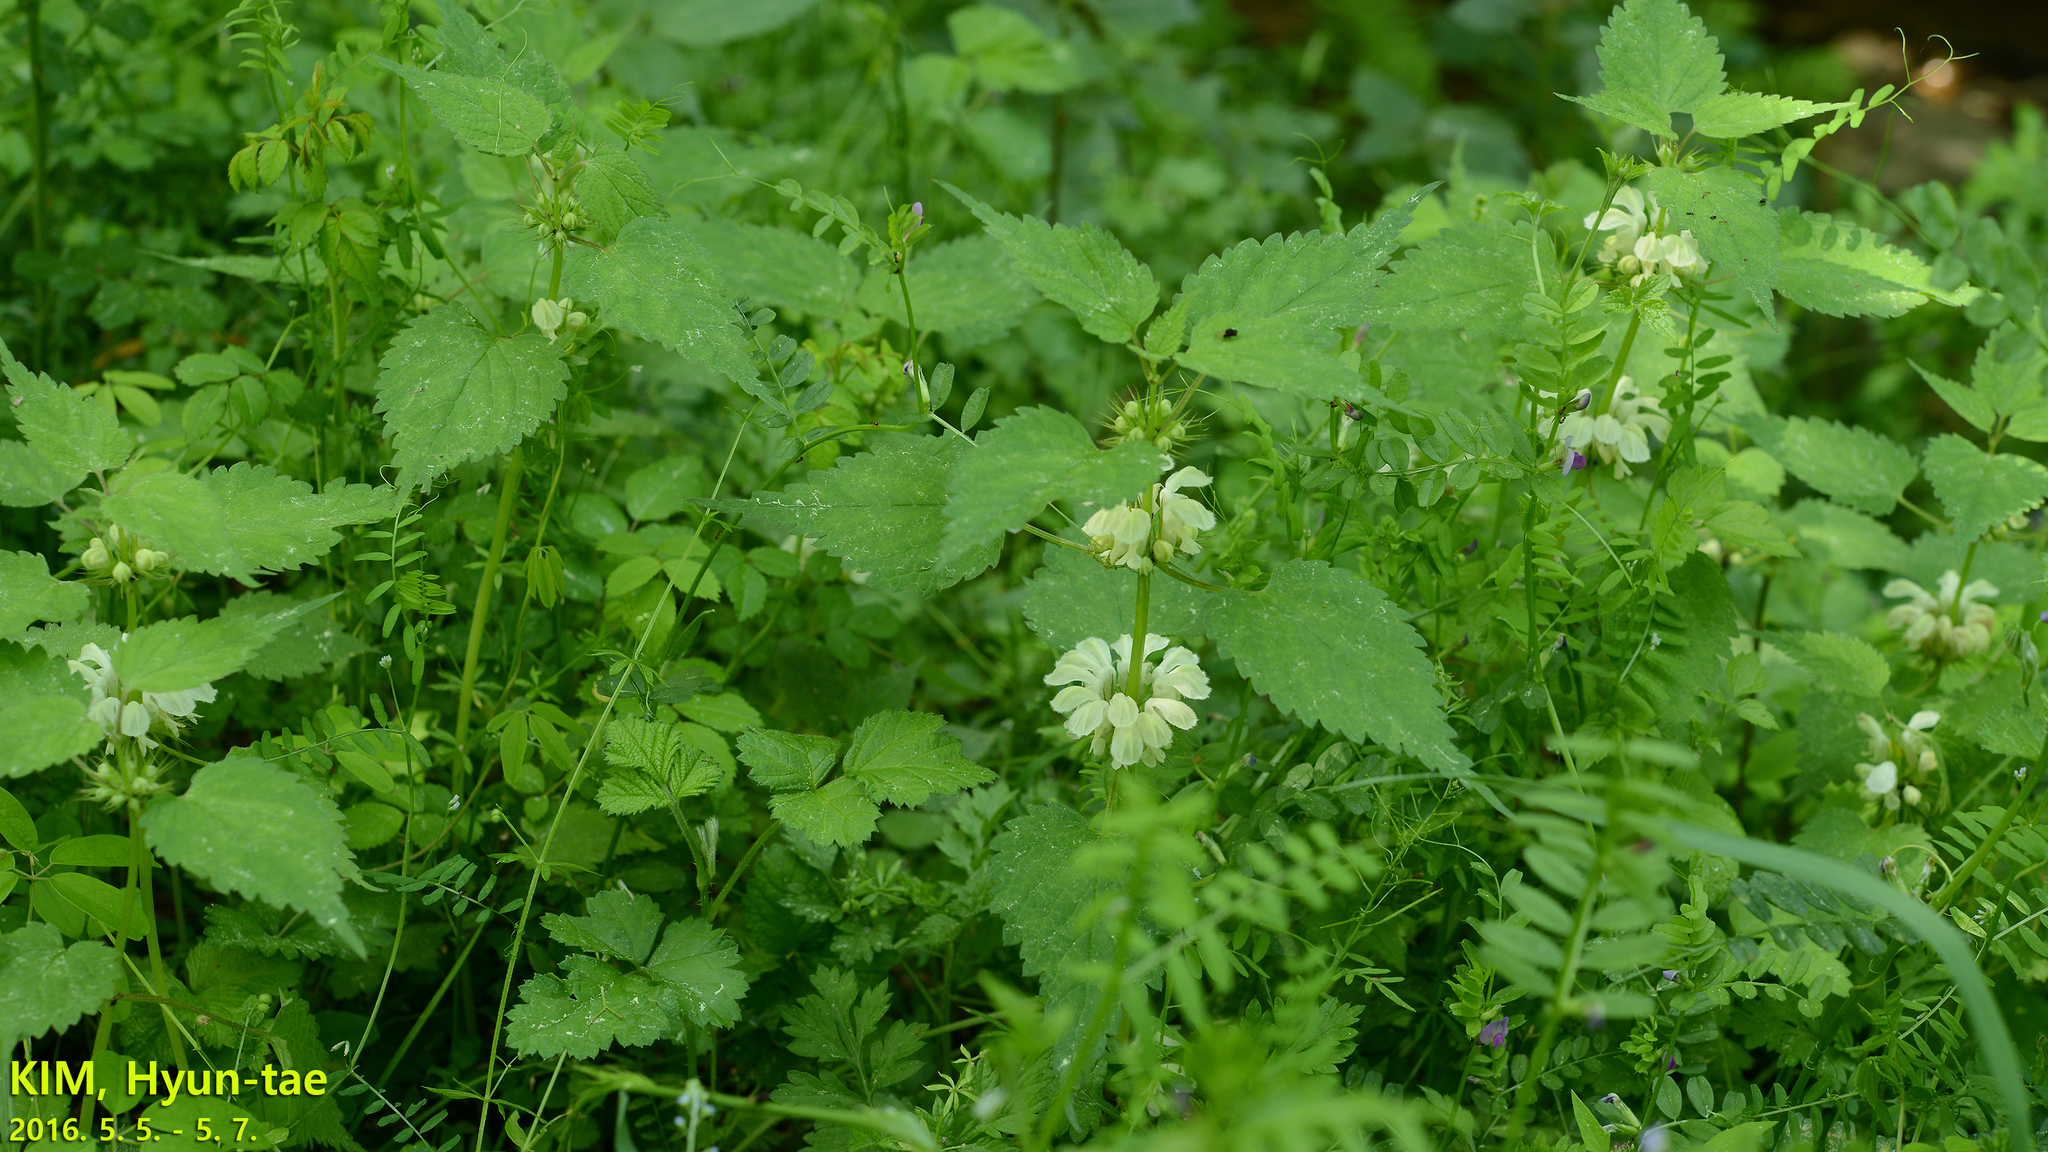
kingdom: Plantae
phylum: Tracheophyta
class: Magnoliopsida
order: Lamiales
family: Lamiaceae
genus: Lamium
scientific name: Lamium album
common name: White dead-nettle
